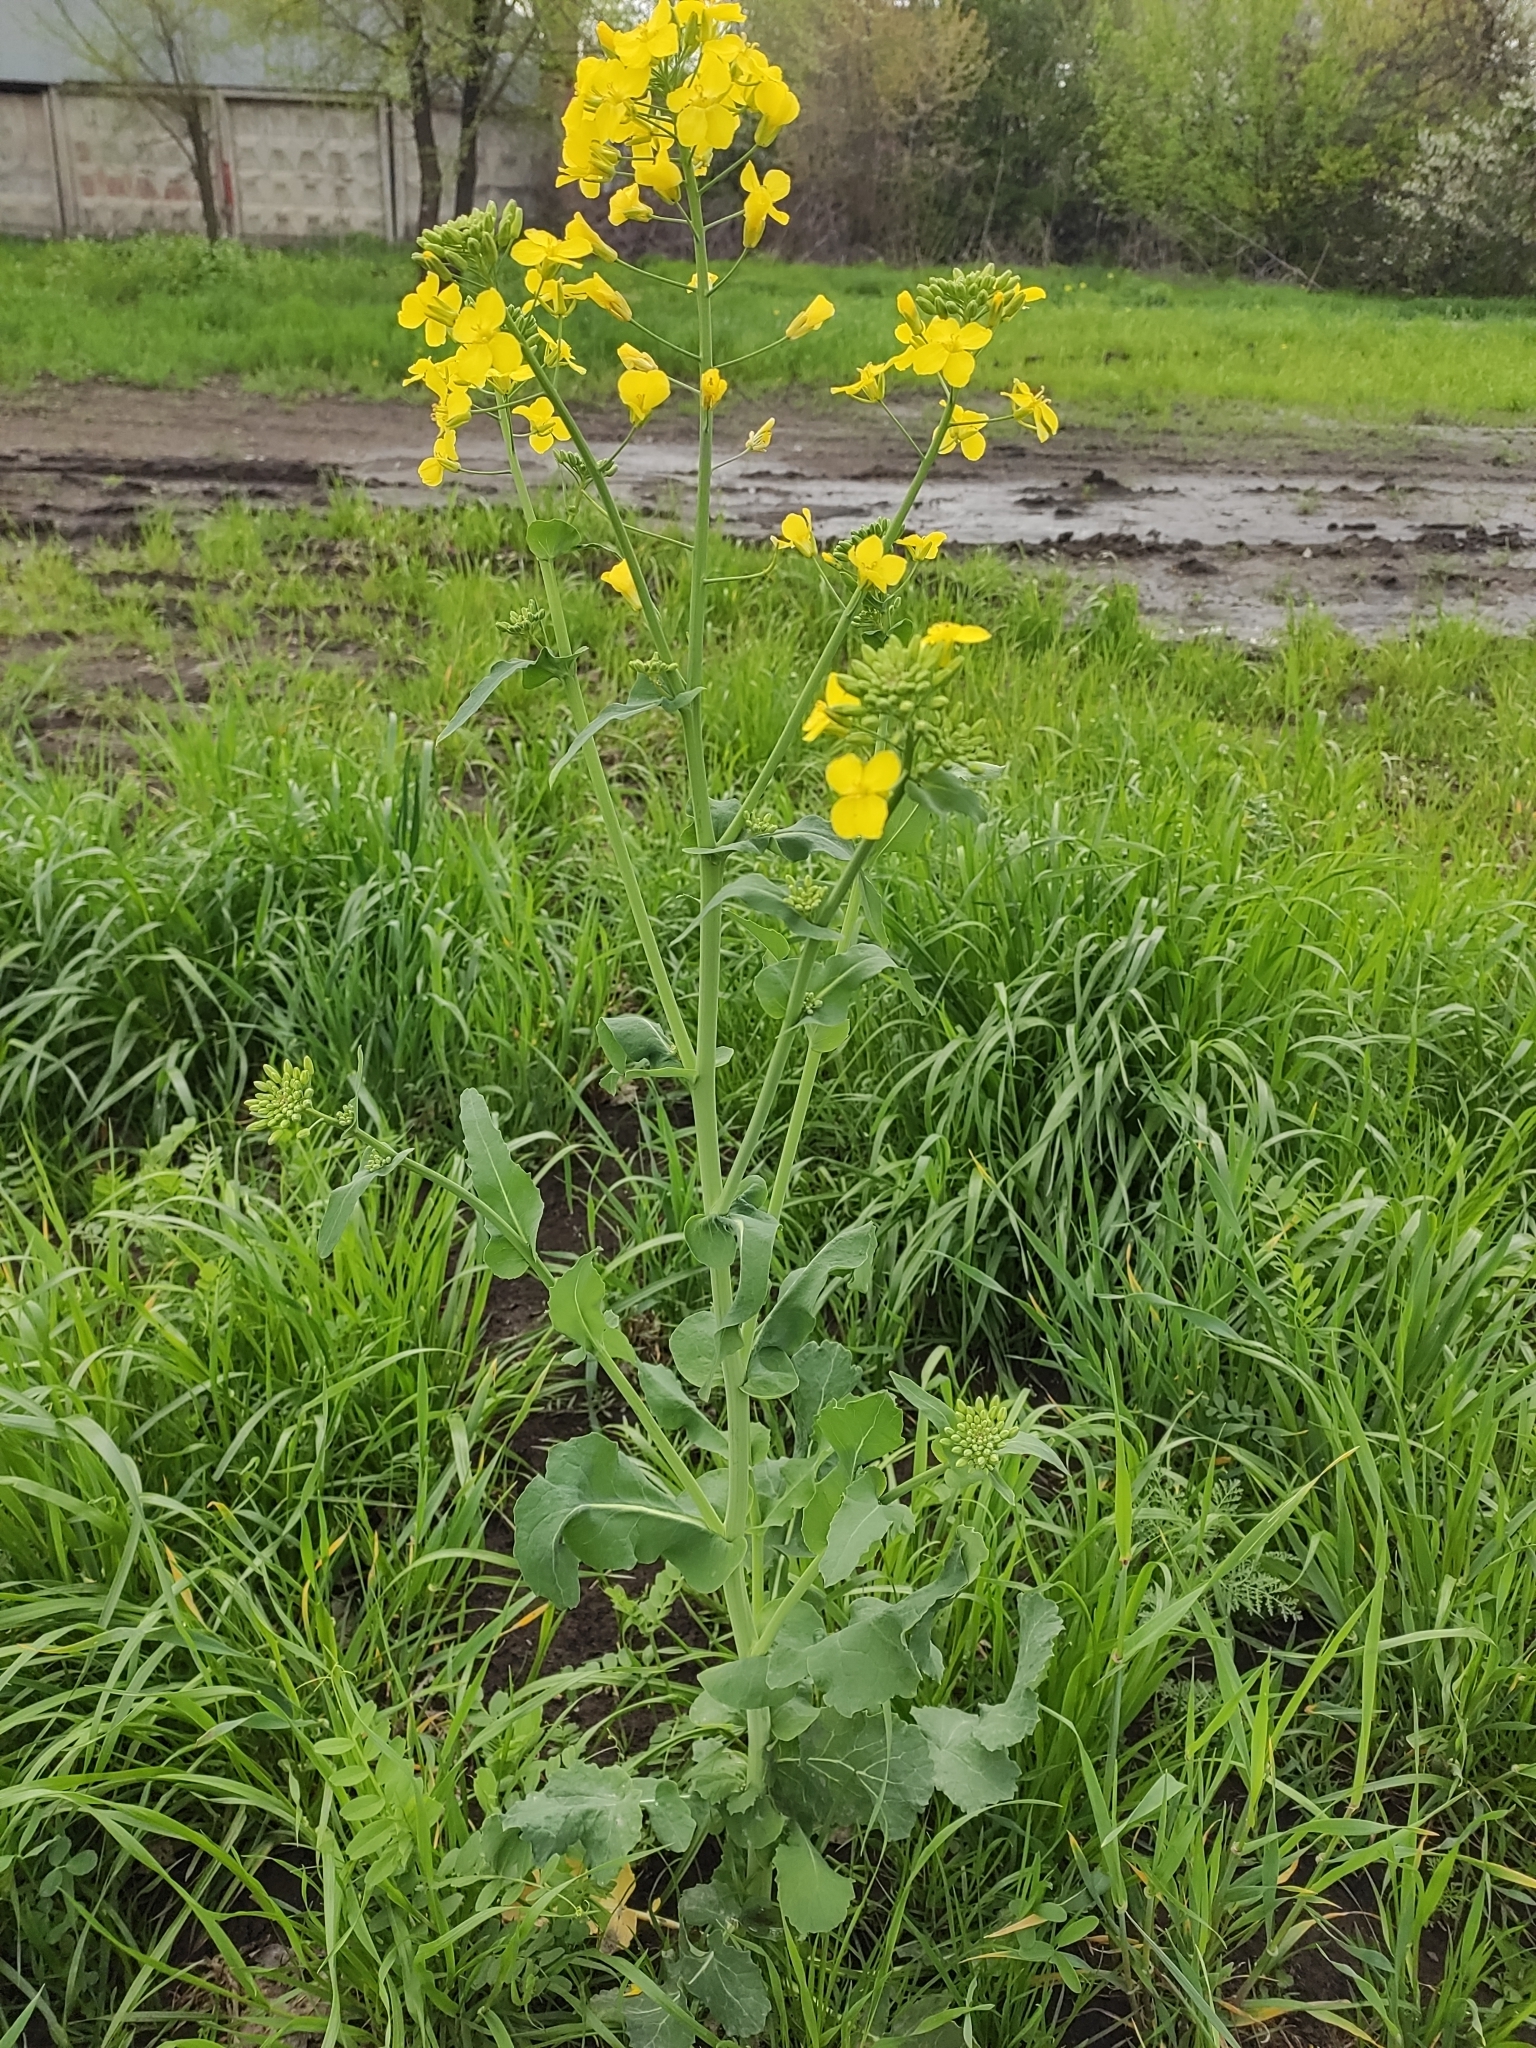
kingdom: Plantae
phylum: Tracheophyta
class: Magnoliopsida
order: Brassicales
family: Brassicaceae
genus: Brassica
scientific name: Brassica napus
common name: Rape
